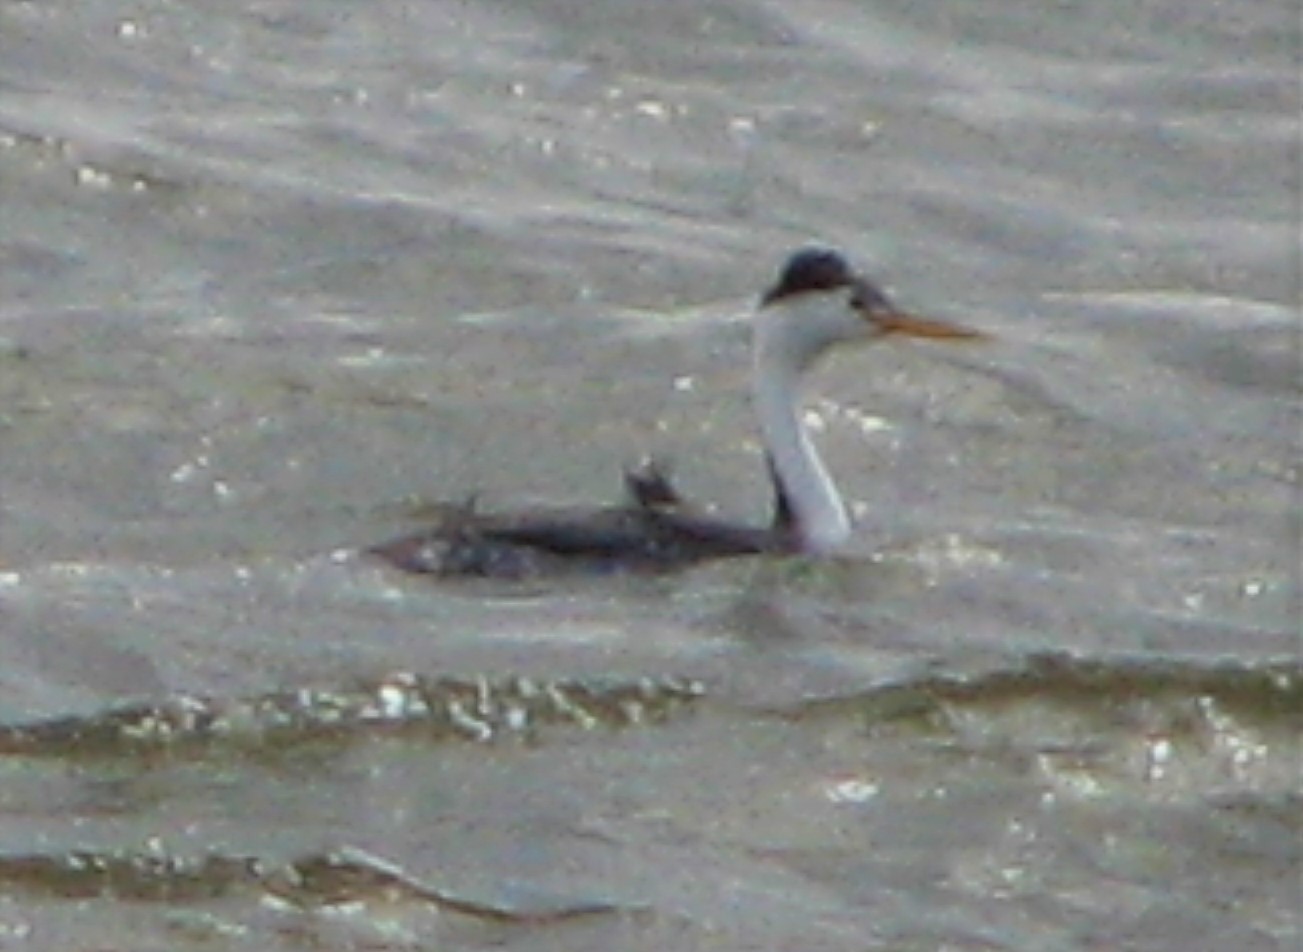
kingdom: Animalia
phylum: Chordata
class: Aves
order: Podicipediformes
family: Podicipedidae
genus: Aechmophorus
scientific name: Aechmophorus clarkii
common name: Clark's grebe
